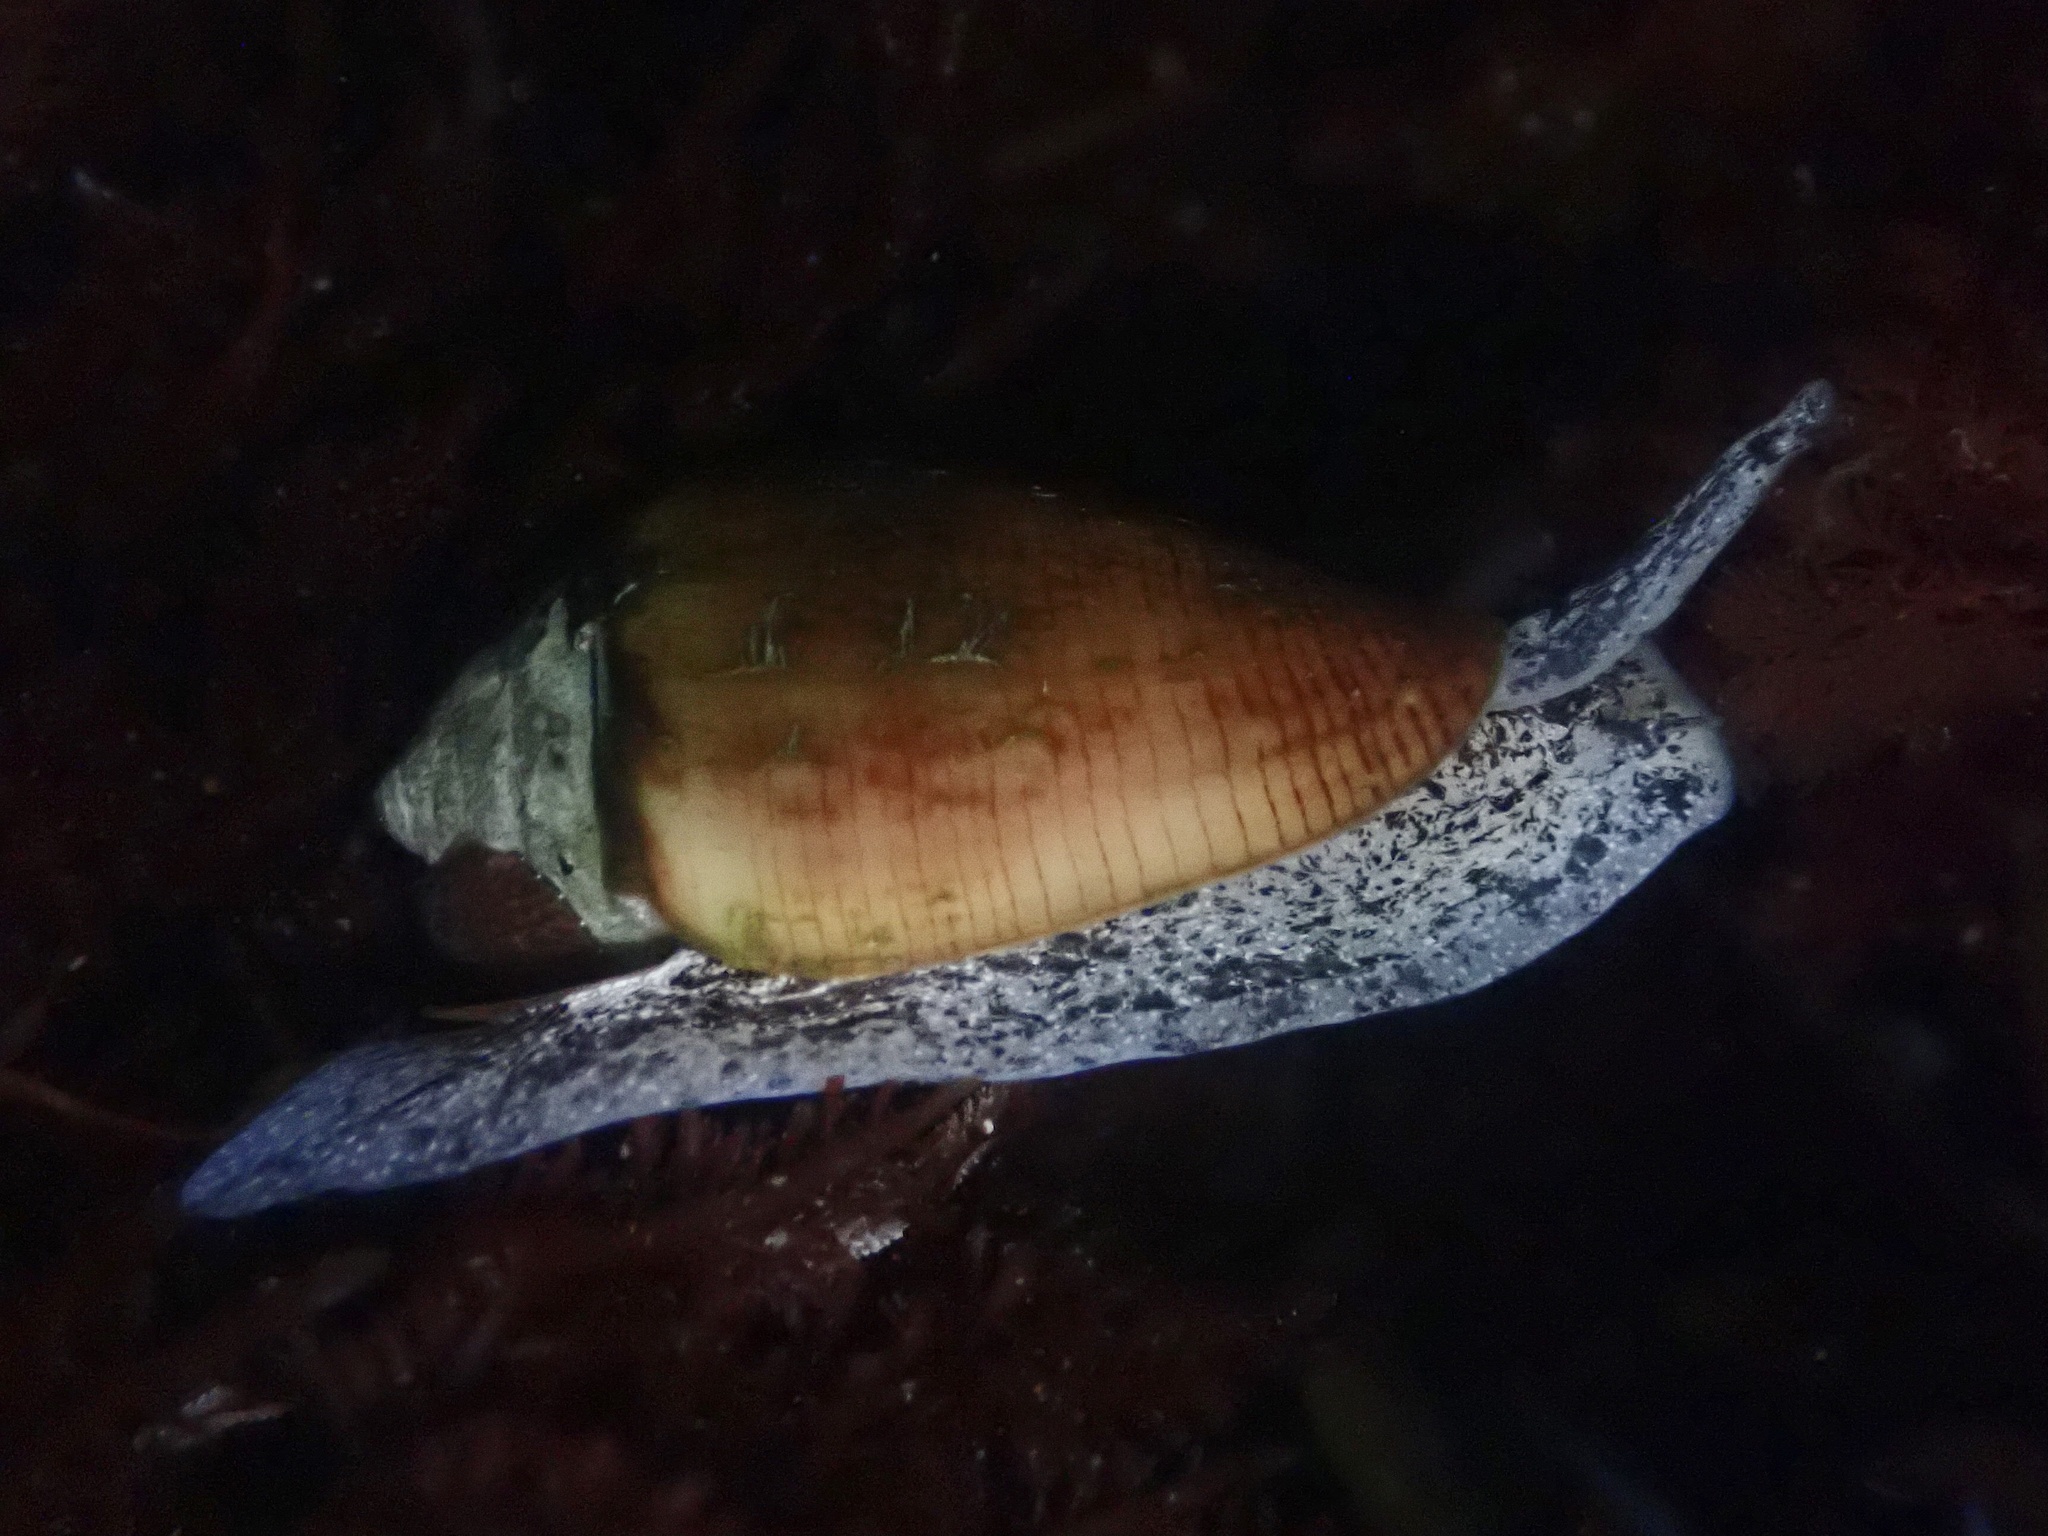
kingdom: Animalia
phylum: Mollusca
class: Gastropoda
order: Neogastropoda
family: Conidae
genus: Californiconus
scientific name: Californiconus californicus
